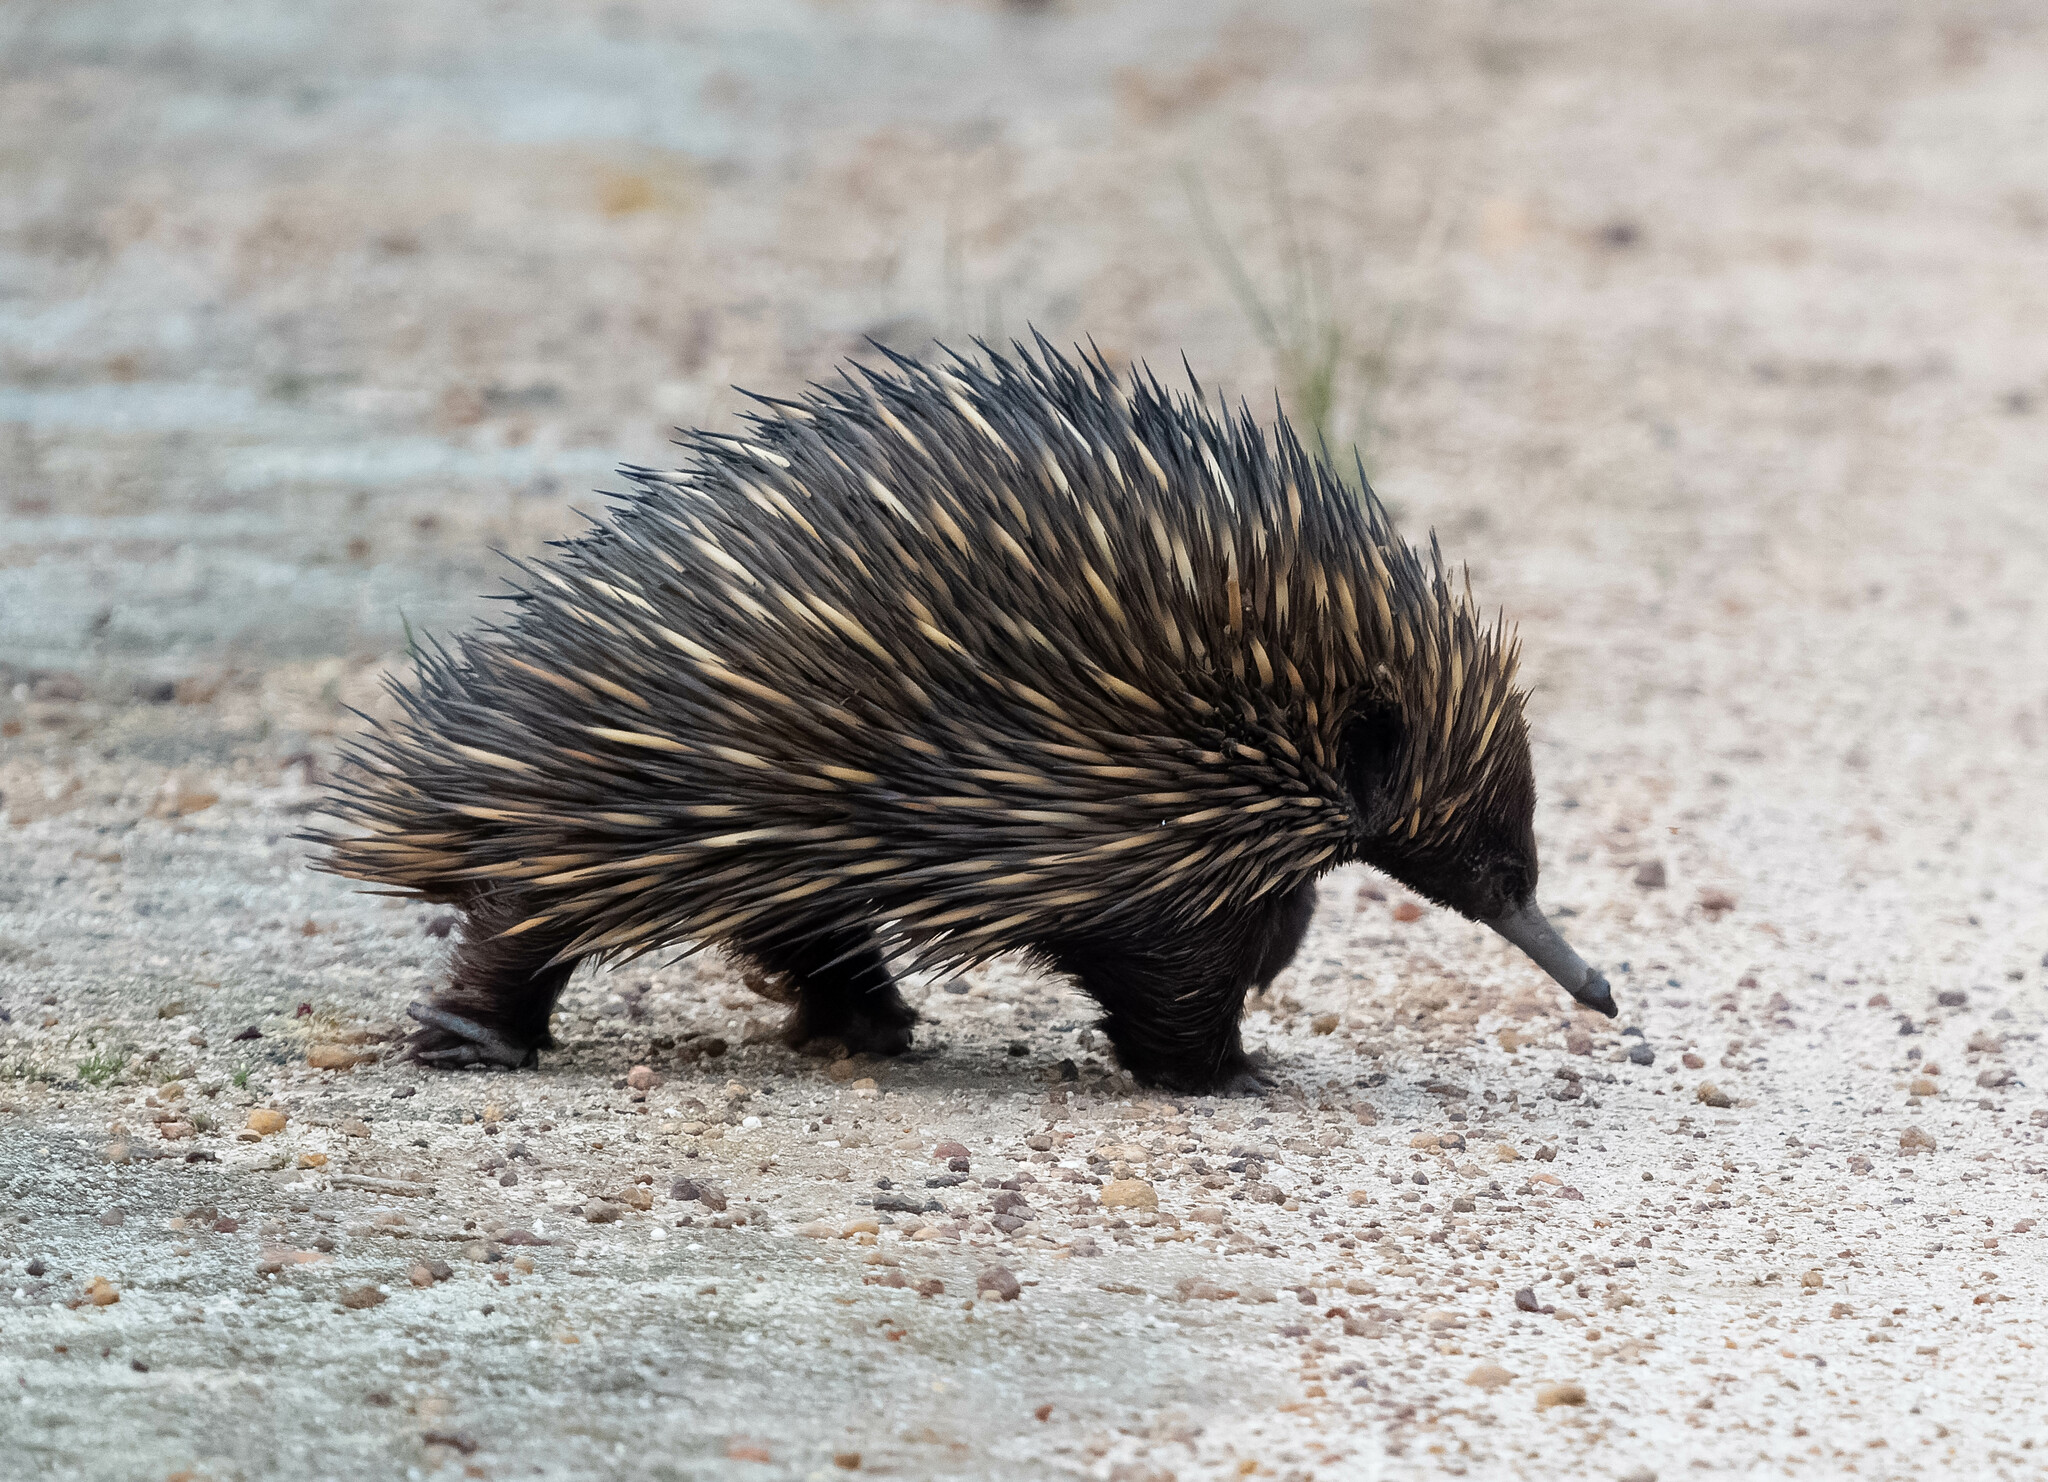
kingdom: Animalia
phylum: Chordata
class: Mammalia
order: Monotremata
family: Tachyglossidae
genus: Tachyglossus
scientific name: Tachyglossus aculeatus
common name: Short-beaked echidna
